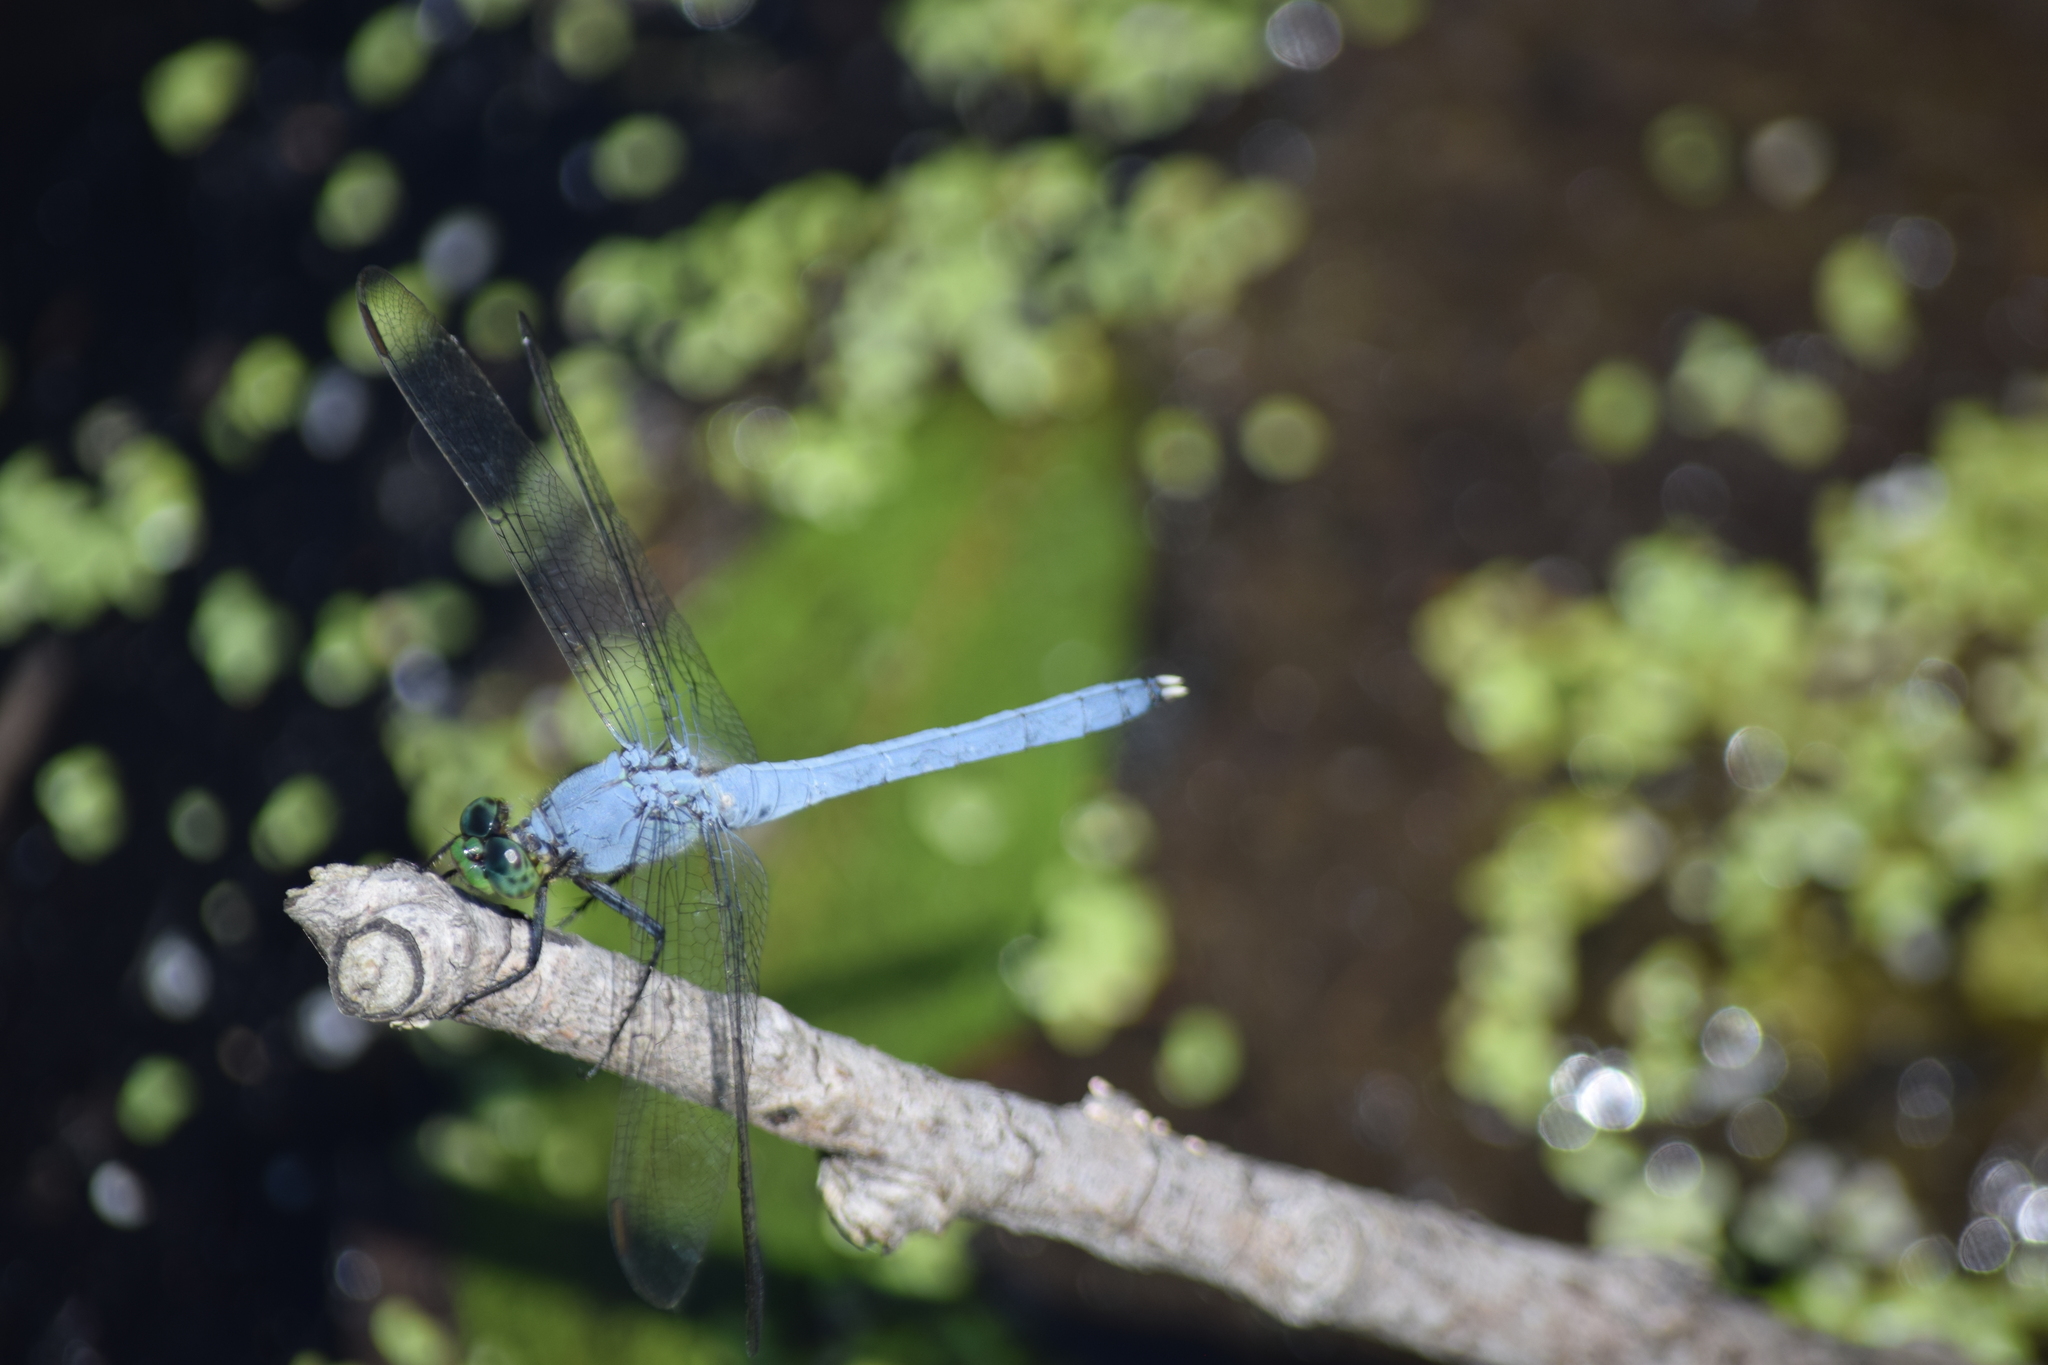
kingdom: Animalia
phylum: Arthropoda
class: Insecta
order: Odonata
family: Libellulidae
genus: Erythemis
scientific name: Erythemis simplicicollis
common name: Eastern pondhawk
